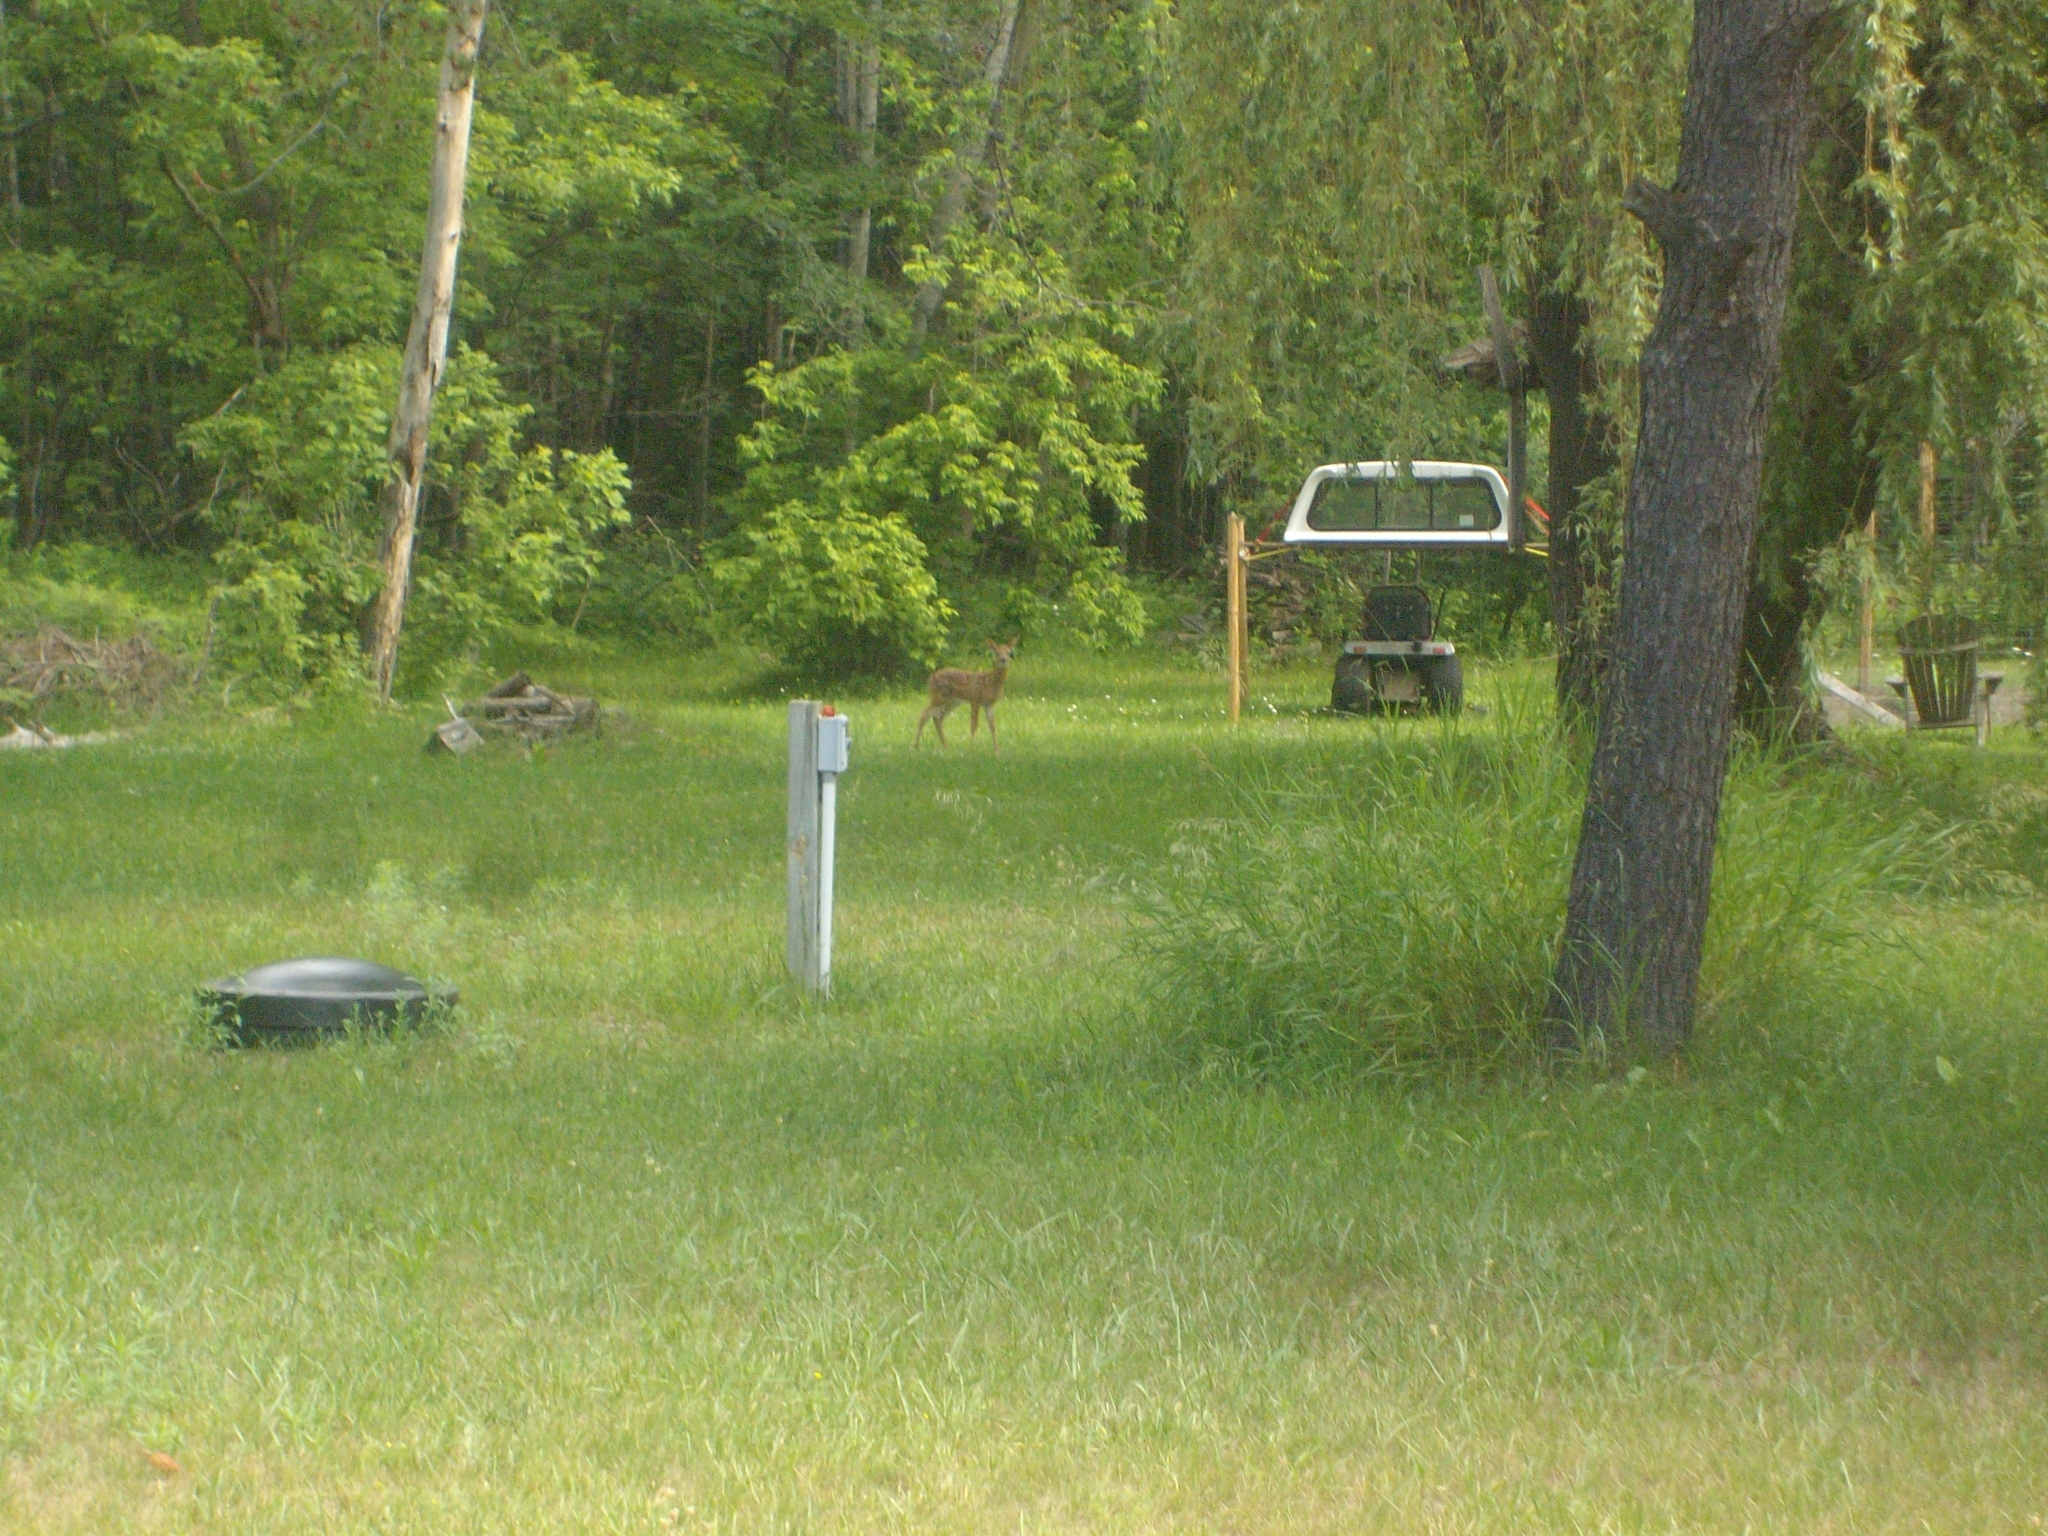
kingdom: Animalia
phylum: Chordata
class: Mammalia
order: Artiodactyla
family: Cervidae
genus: Odocoileus
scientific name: Odocoileus virginianus
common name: White-tailed deer
